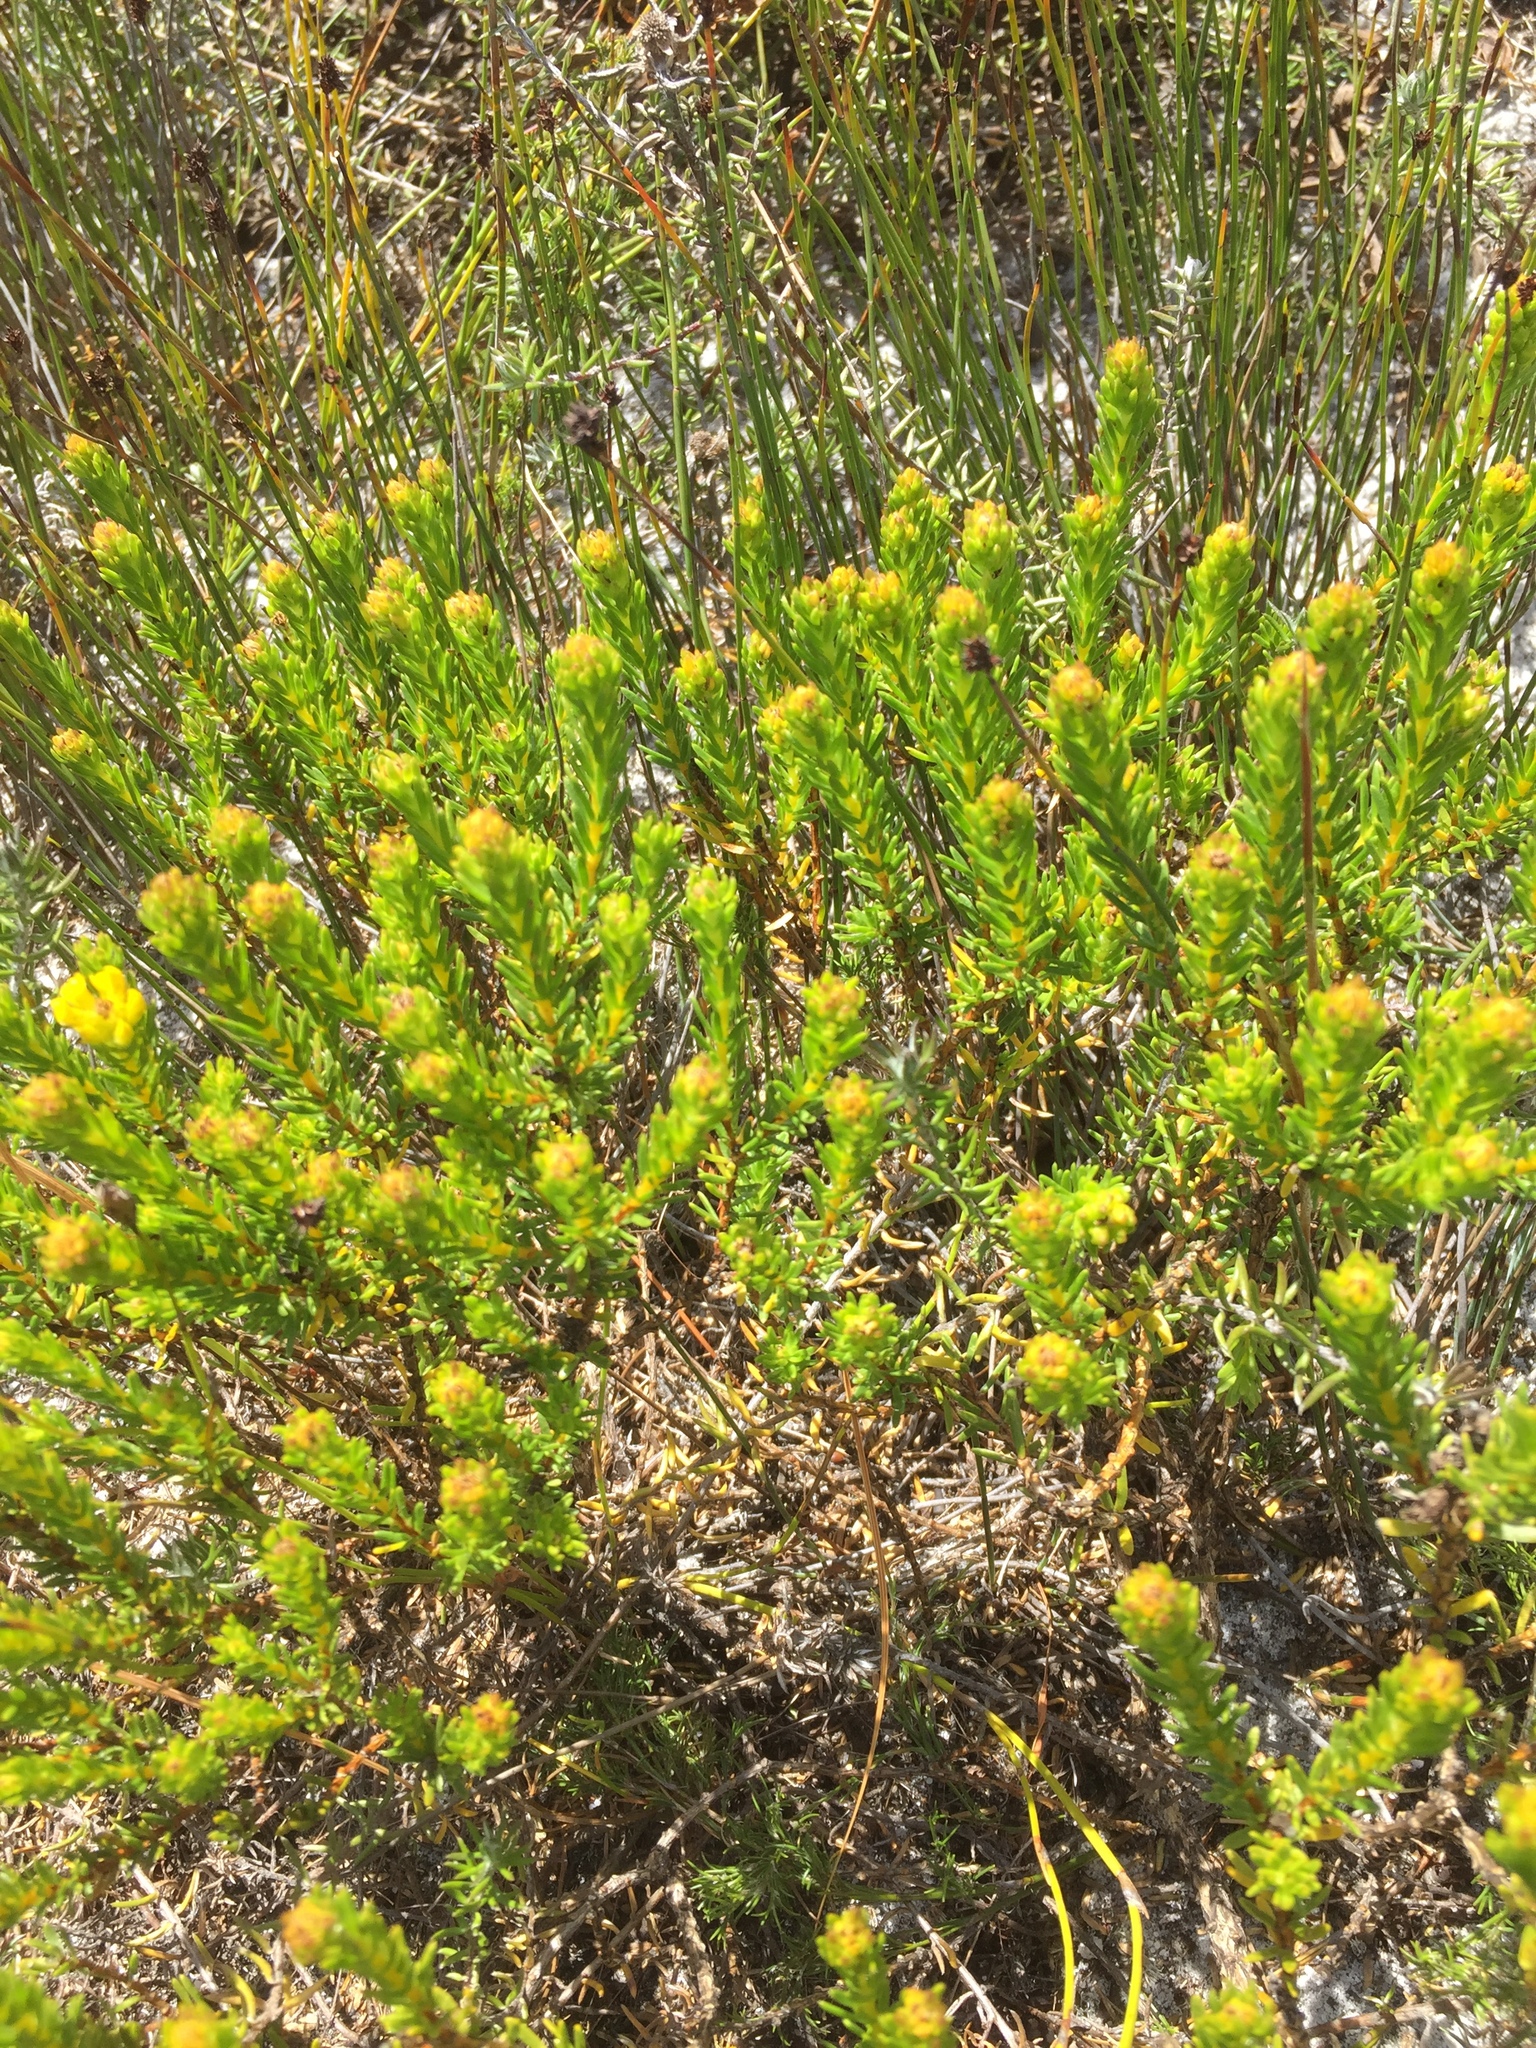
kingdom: Plantae
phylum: Tracheophyta
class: Magnoliopsida
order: Fabales
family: Fabaceae
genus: Aspalathus
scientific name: Aspalathus callosa
